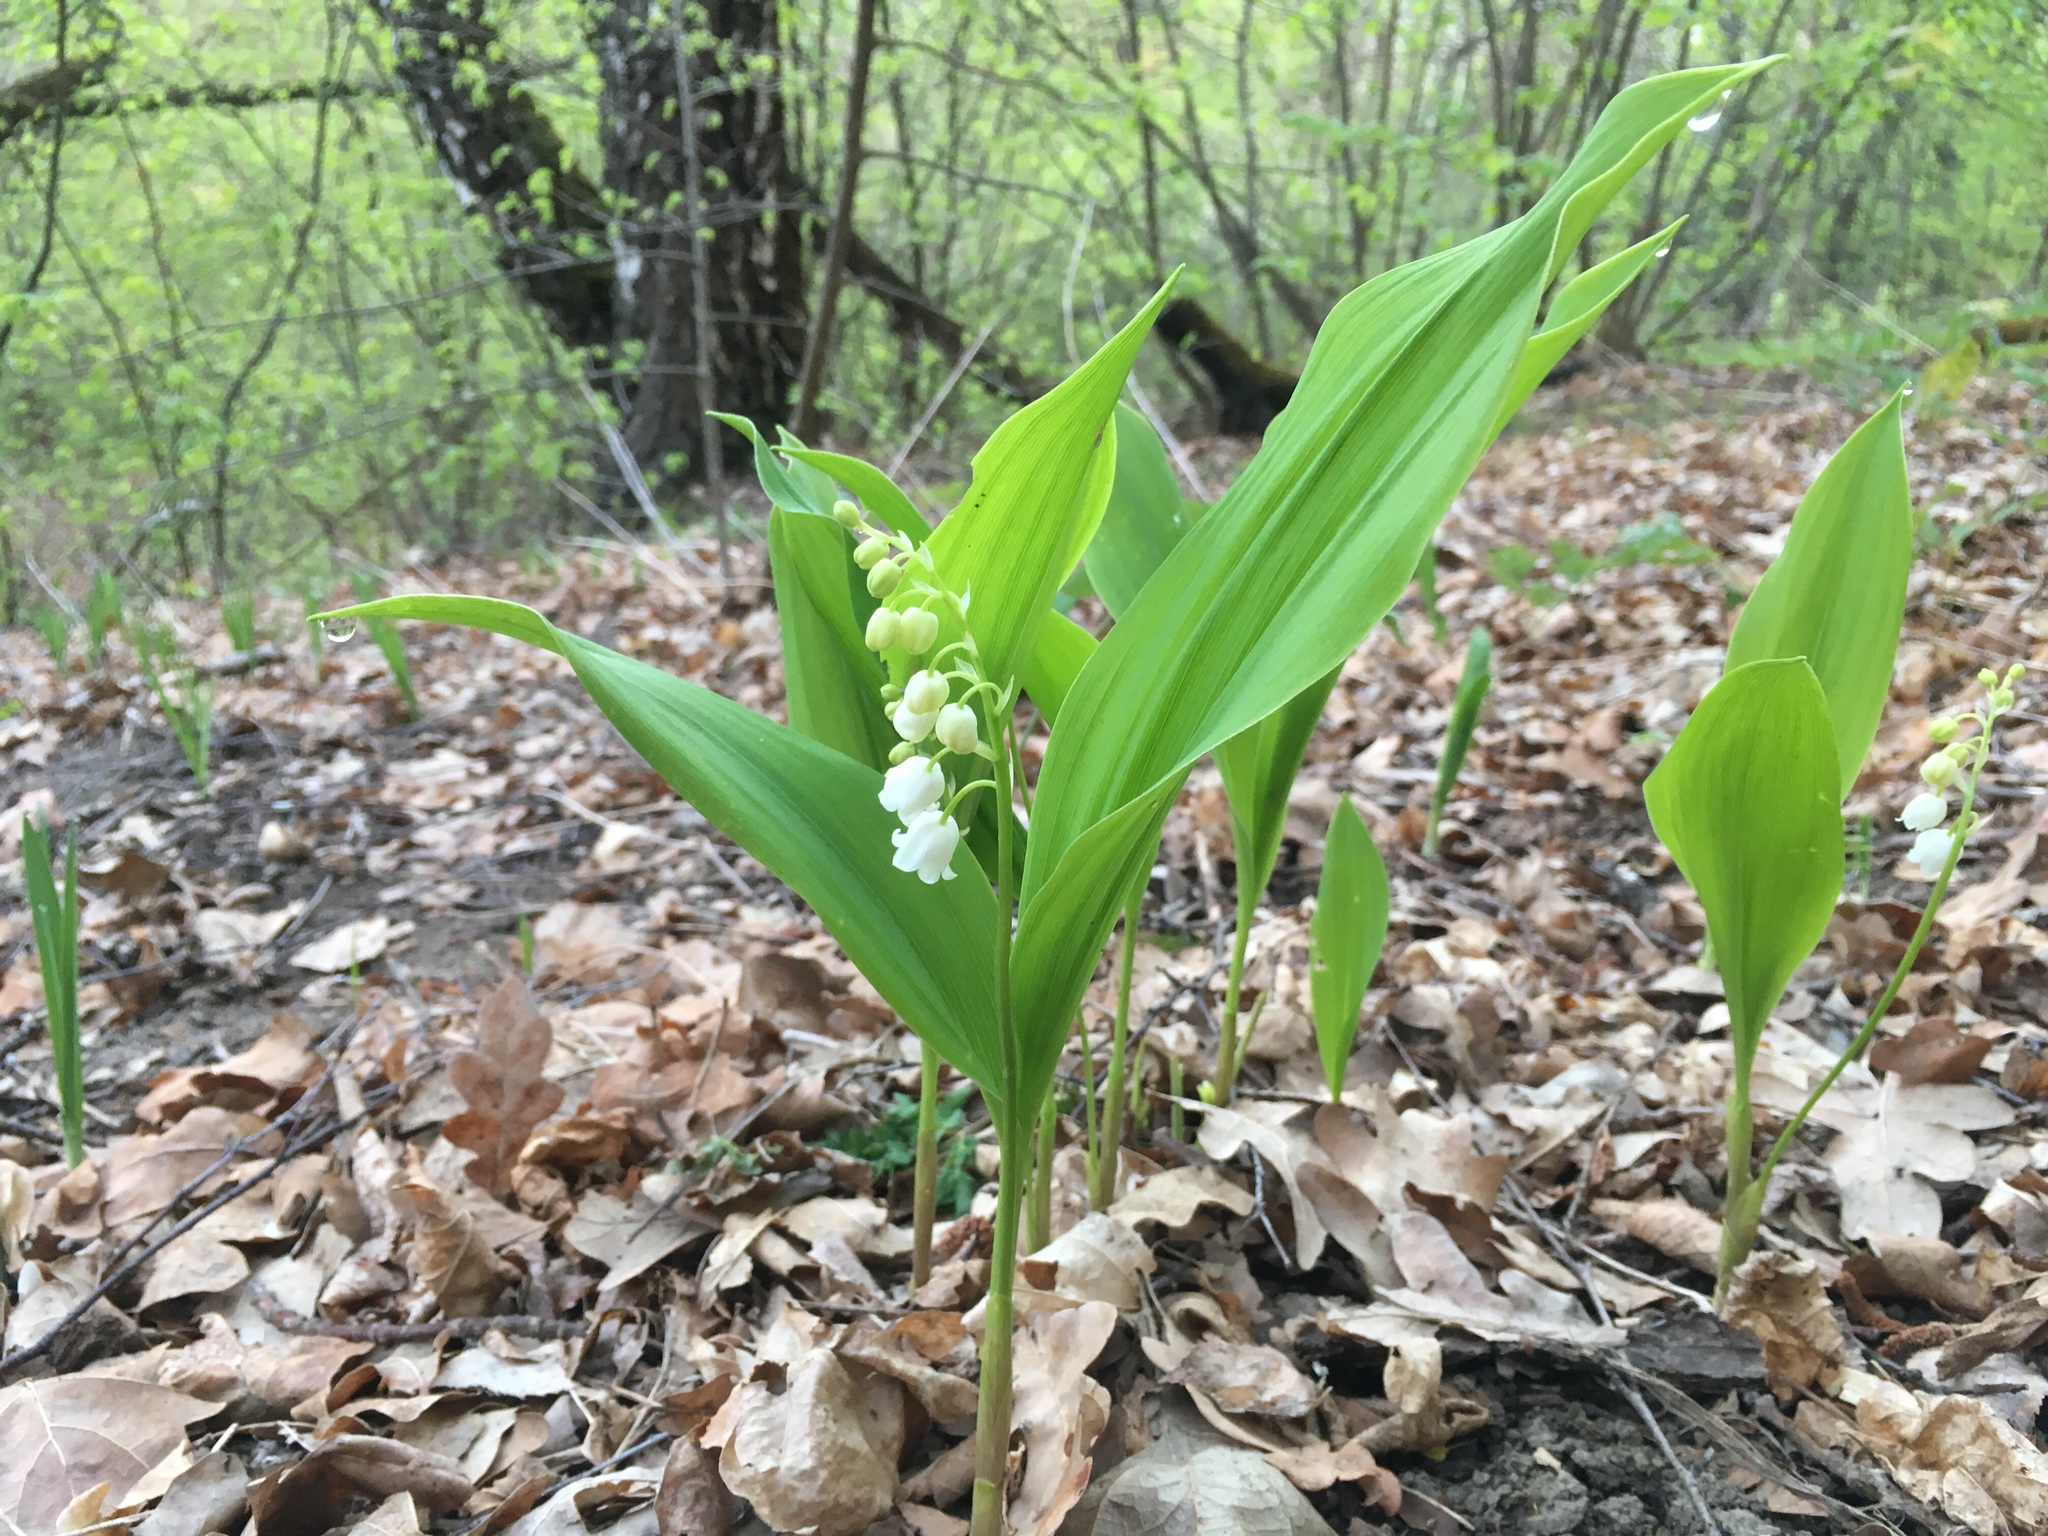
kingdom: Plantae
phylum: Tracheophyta
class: Liliopsida
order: Asparagales
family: Asparagaceae
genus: Convallaria
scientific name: Convallaria majalis
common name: Lily-of-the-valley
